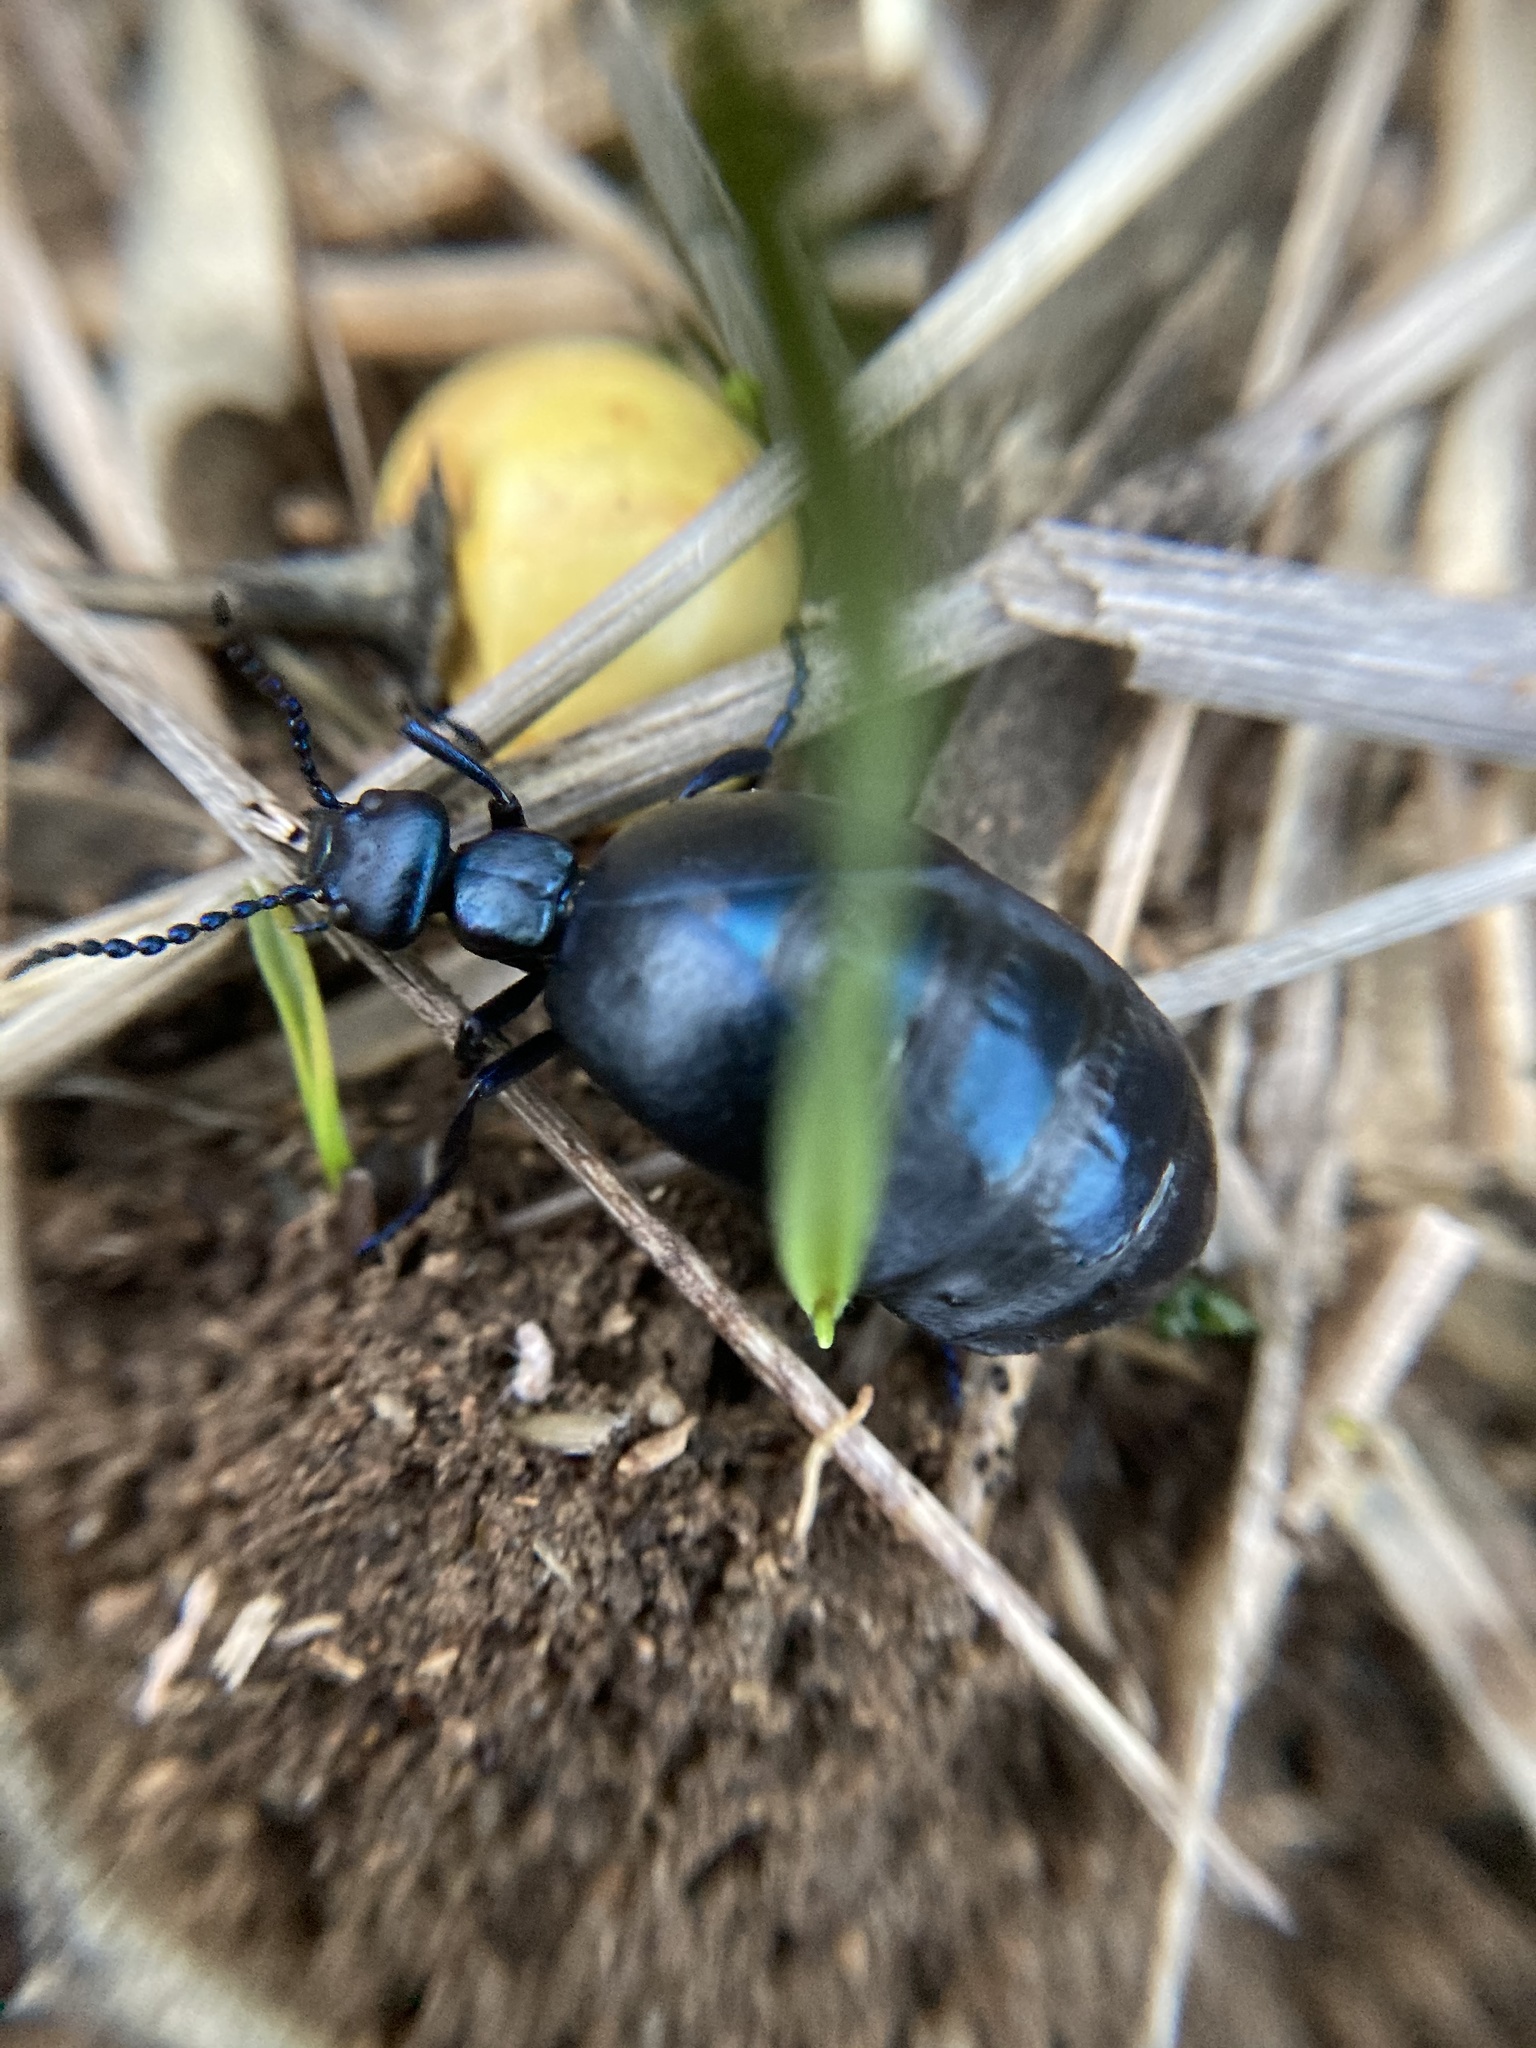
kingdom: Animalia
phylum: Arthropoda
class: Insecta
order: Coleoptera
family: Meloidae
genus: Meloe
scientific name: Meloe autumnalis
